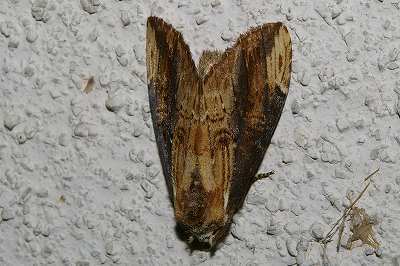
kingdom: Animalia
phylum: Arthropoda
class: Insecta
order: Lepidoptera
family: Notodontidae
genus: Hexafrenum
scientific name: Hexafrenum leucodera
